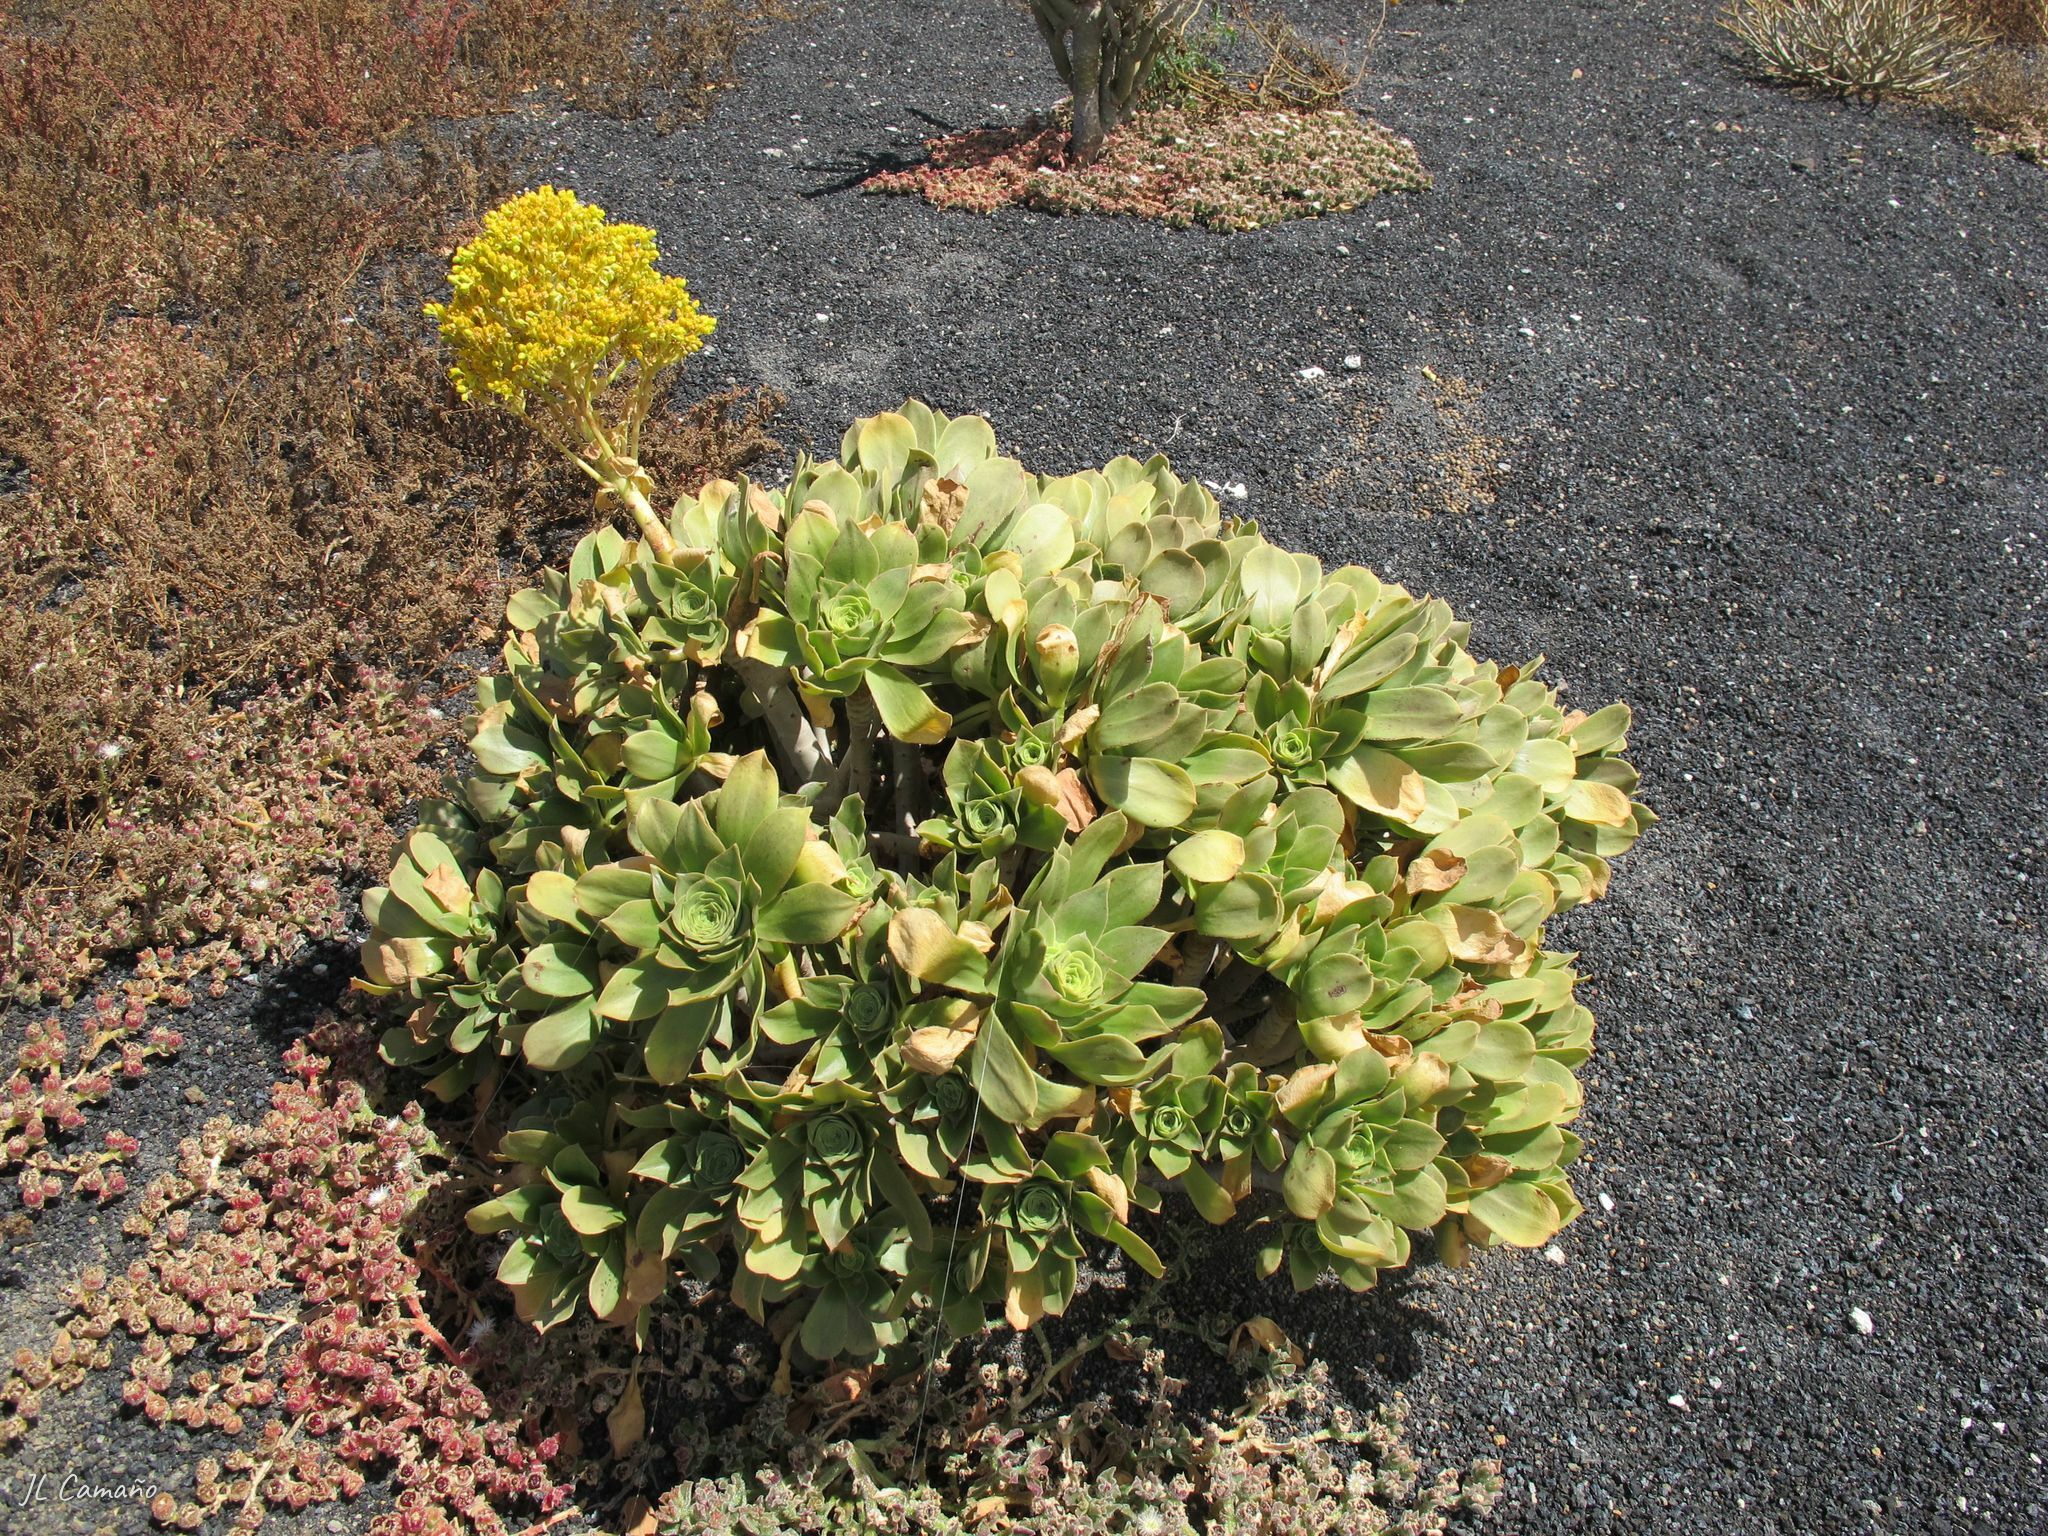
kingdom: Plantae
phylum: Tracheophyta
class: Magnoliopsida
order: Saxifragales
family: Crassulaceae
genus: Aeonium
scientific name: Aeonium balsamiferum
